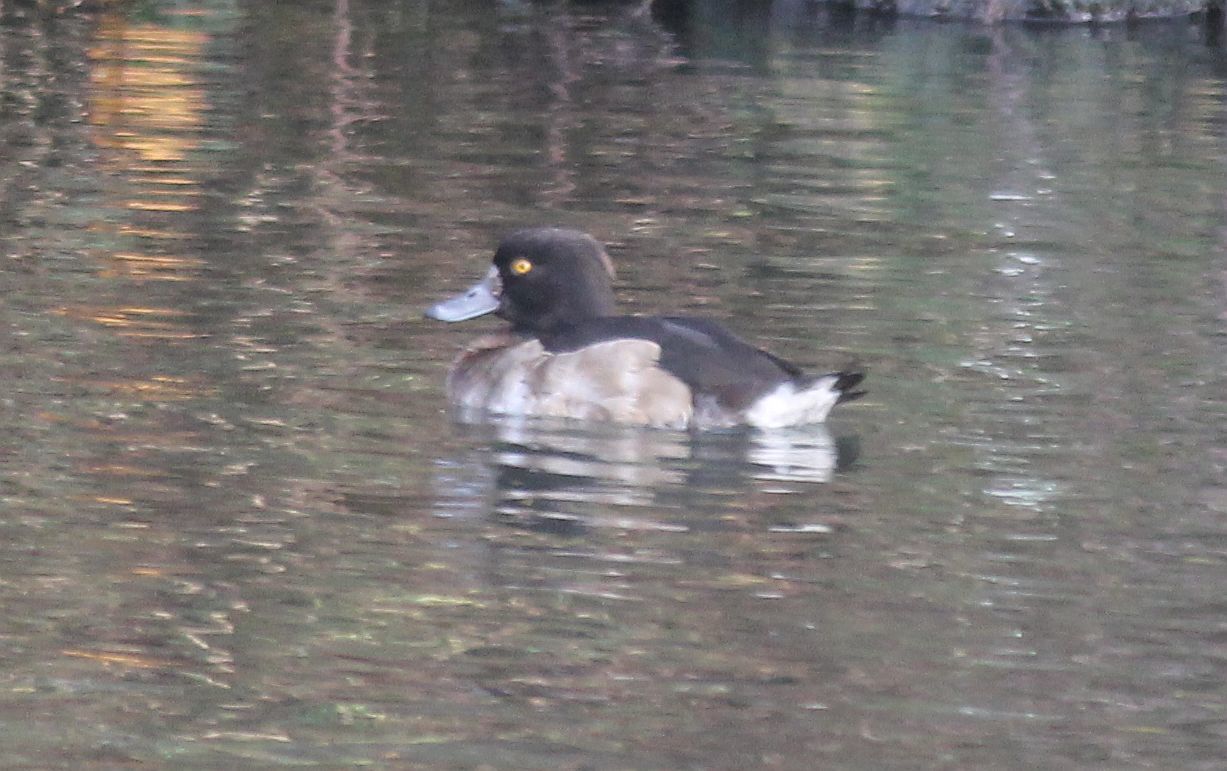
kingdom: Animalia
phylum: Chordata
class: Aves
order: Anseriformes
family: Anatidae
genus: Aythya
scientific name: Aythya fuligula
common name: Tufted duck
